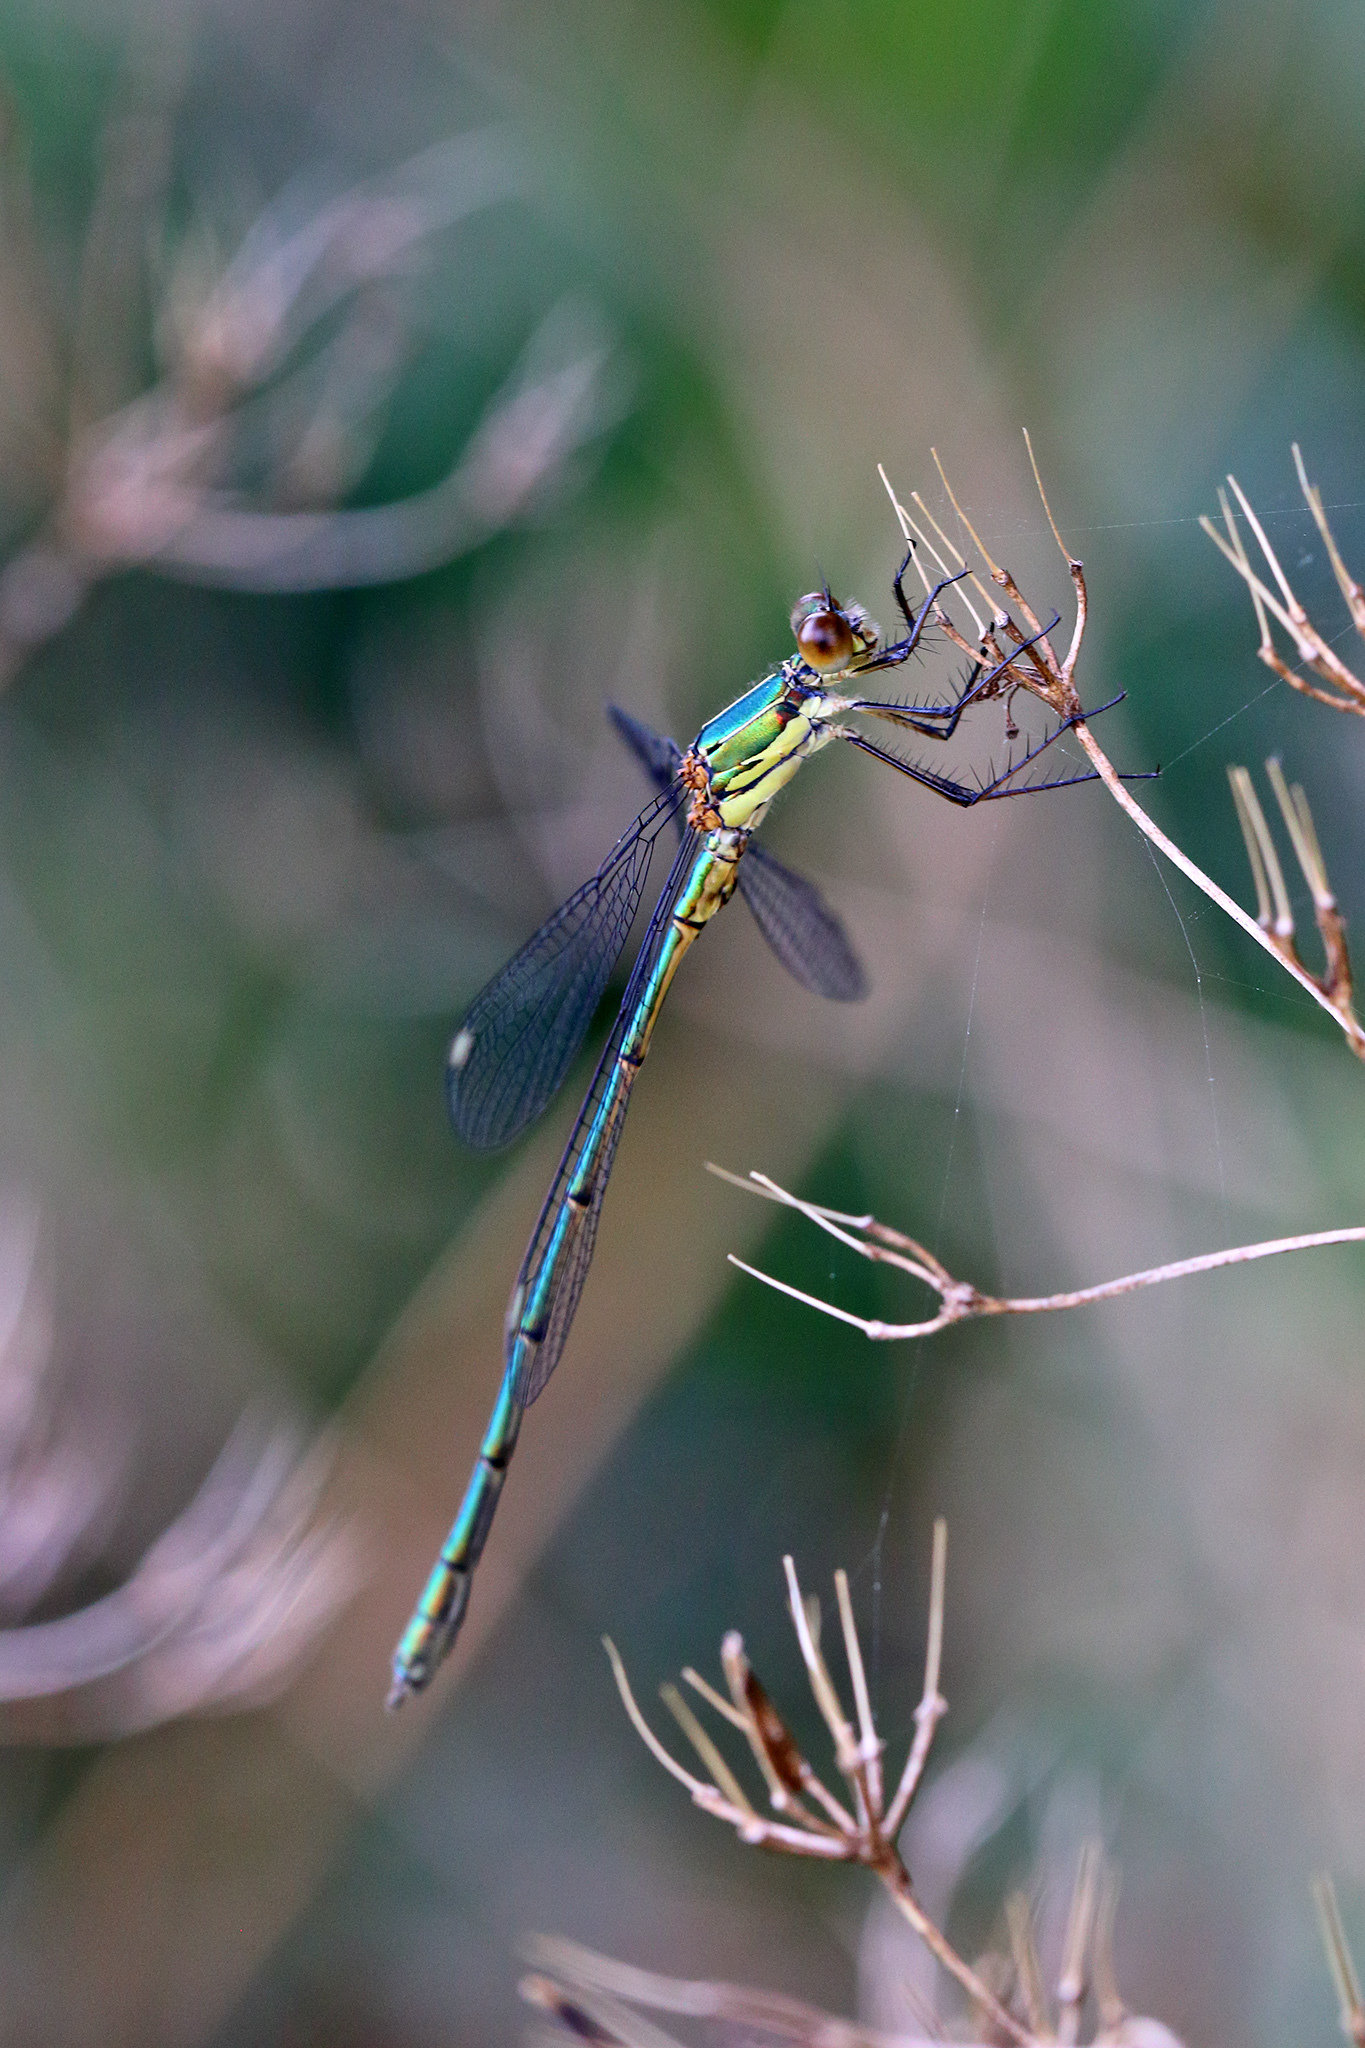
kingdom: Animalia
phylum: Arthropoda
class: Insecta
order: Odonata
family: Lestidae
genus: Chalcolestes
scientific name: Chalcolestes viridis
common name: Green emerald damselfly
